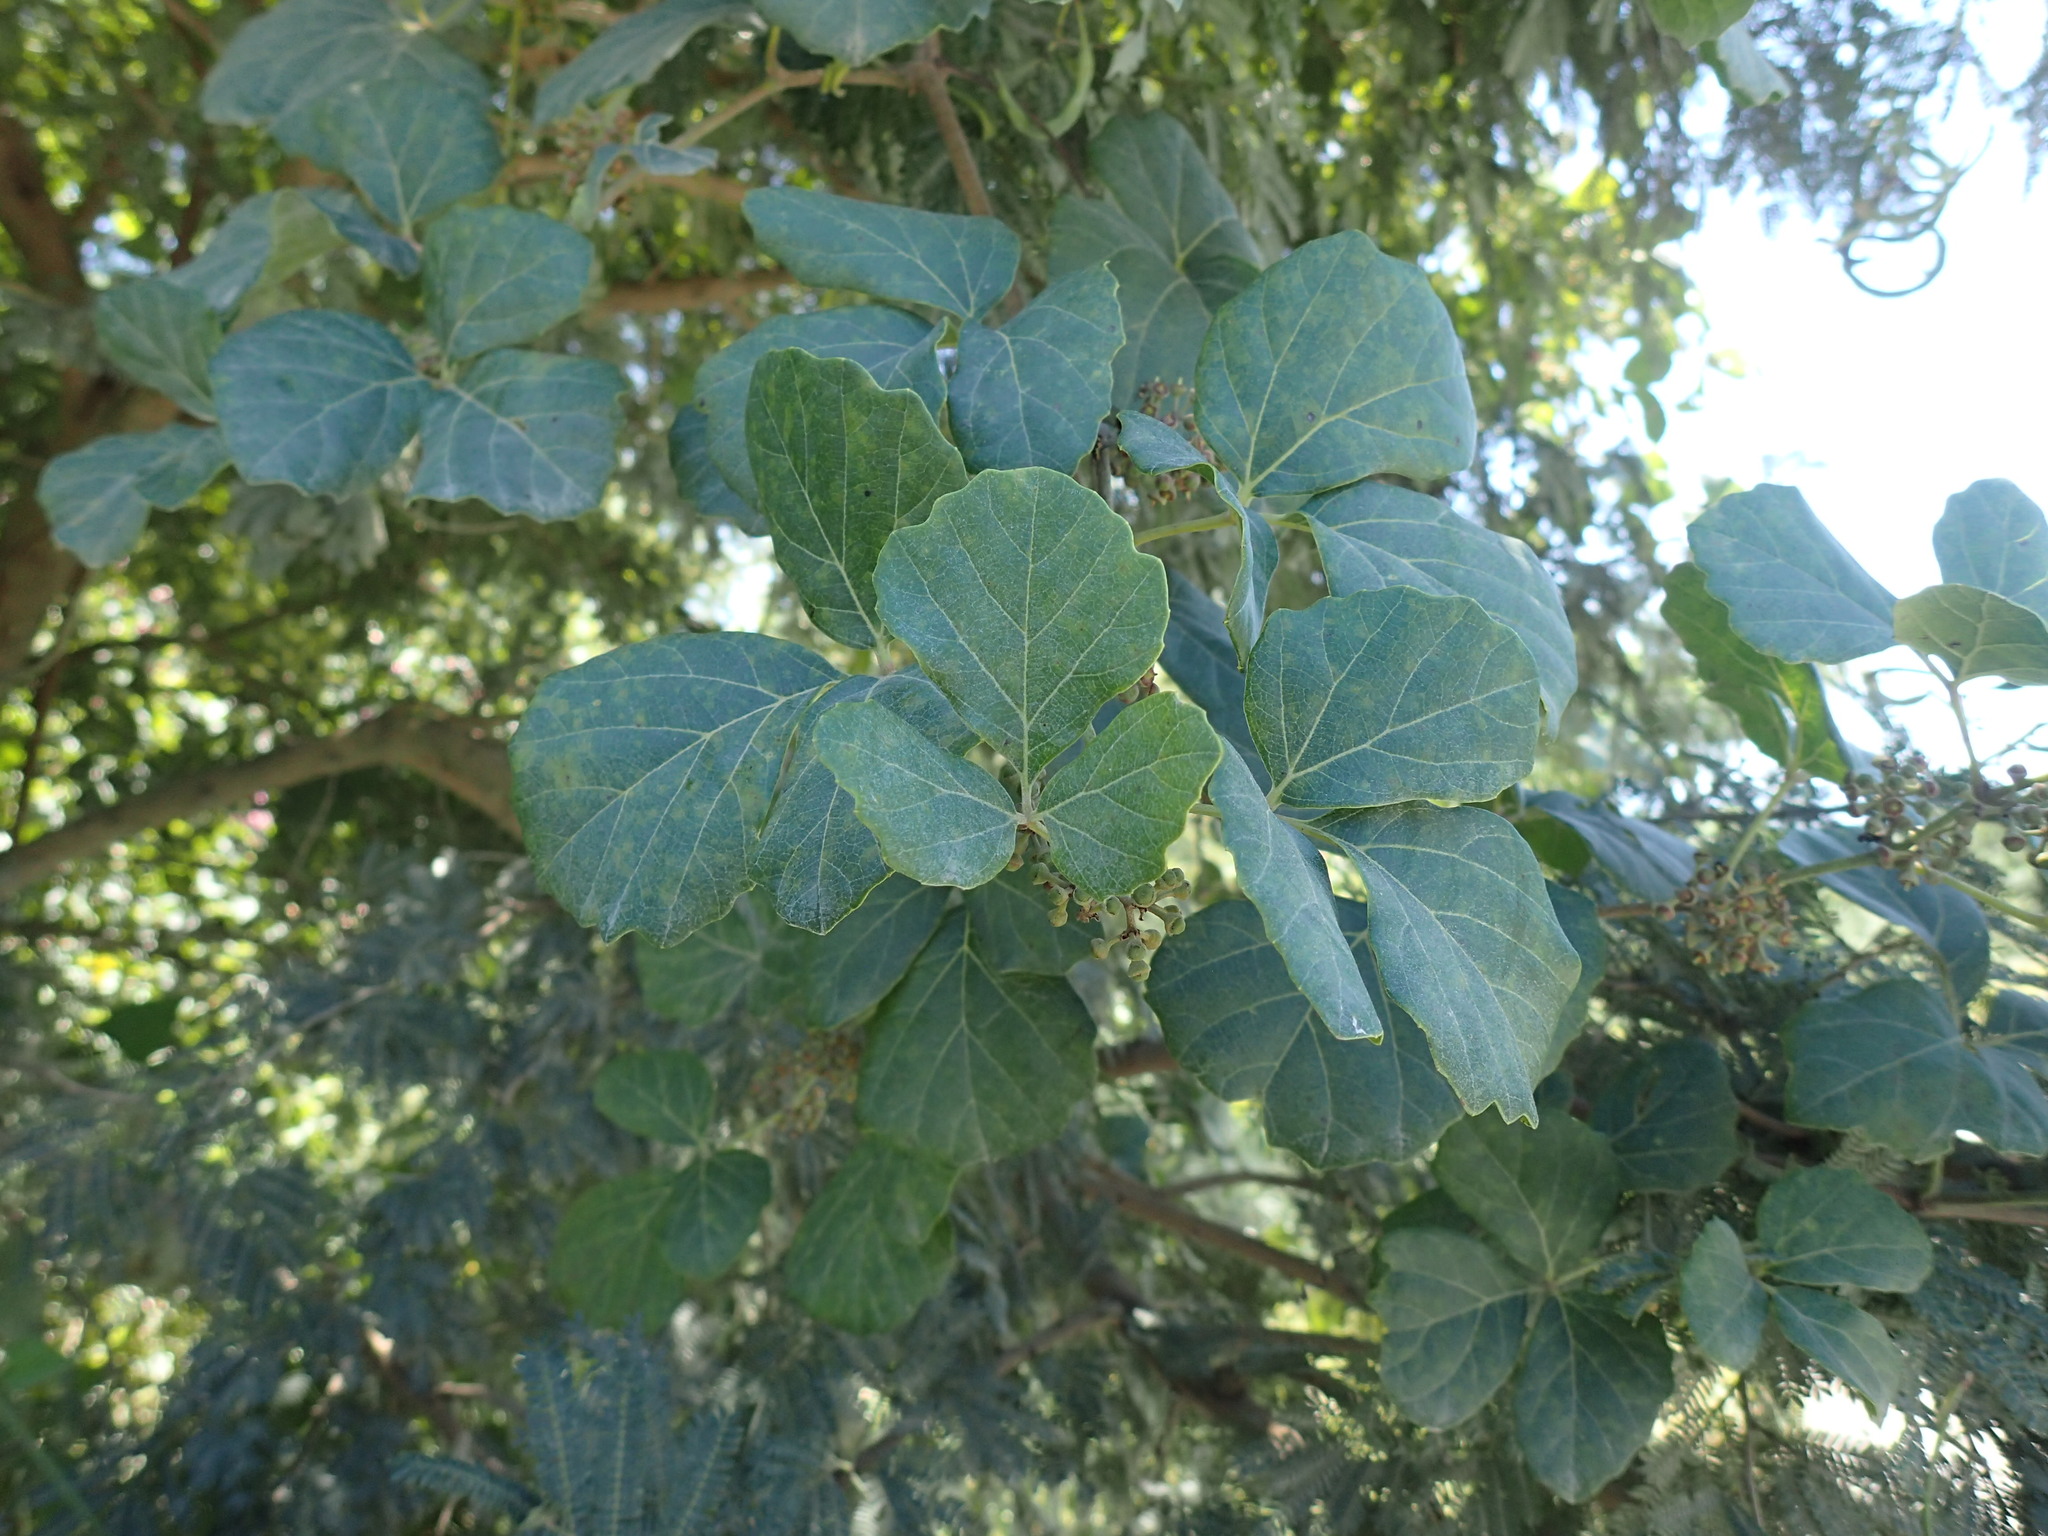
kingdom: Plantae
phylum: Tracheophyta
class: Magnoliopsida
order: Vitales
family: Vitaceae
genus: Rhoicissus
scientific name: Rhoicissus tridentata
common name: Common forest grape
